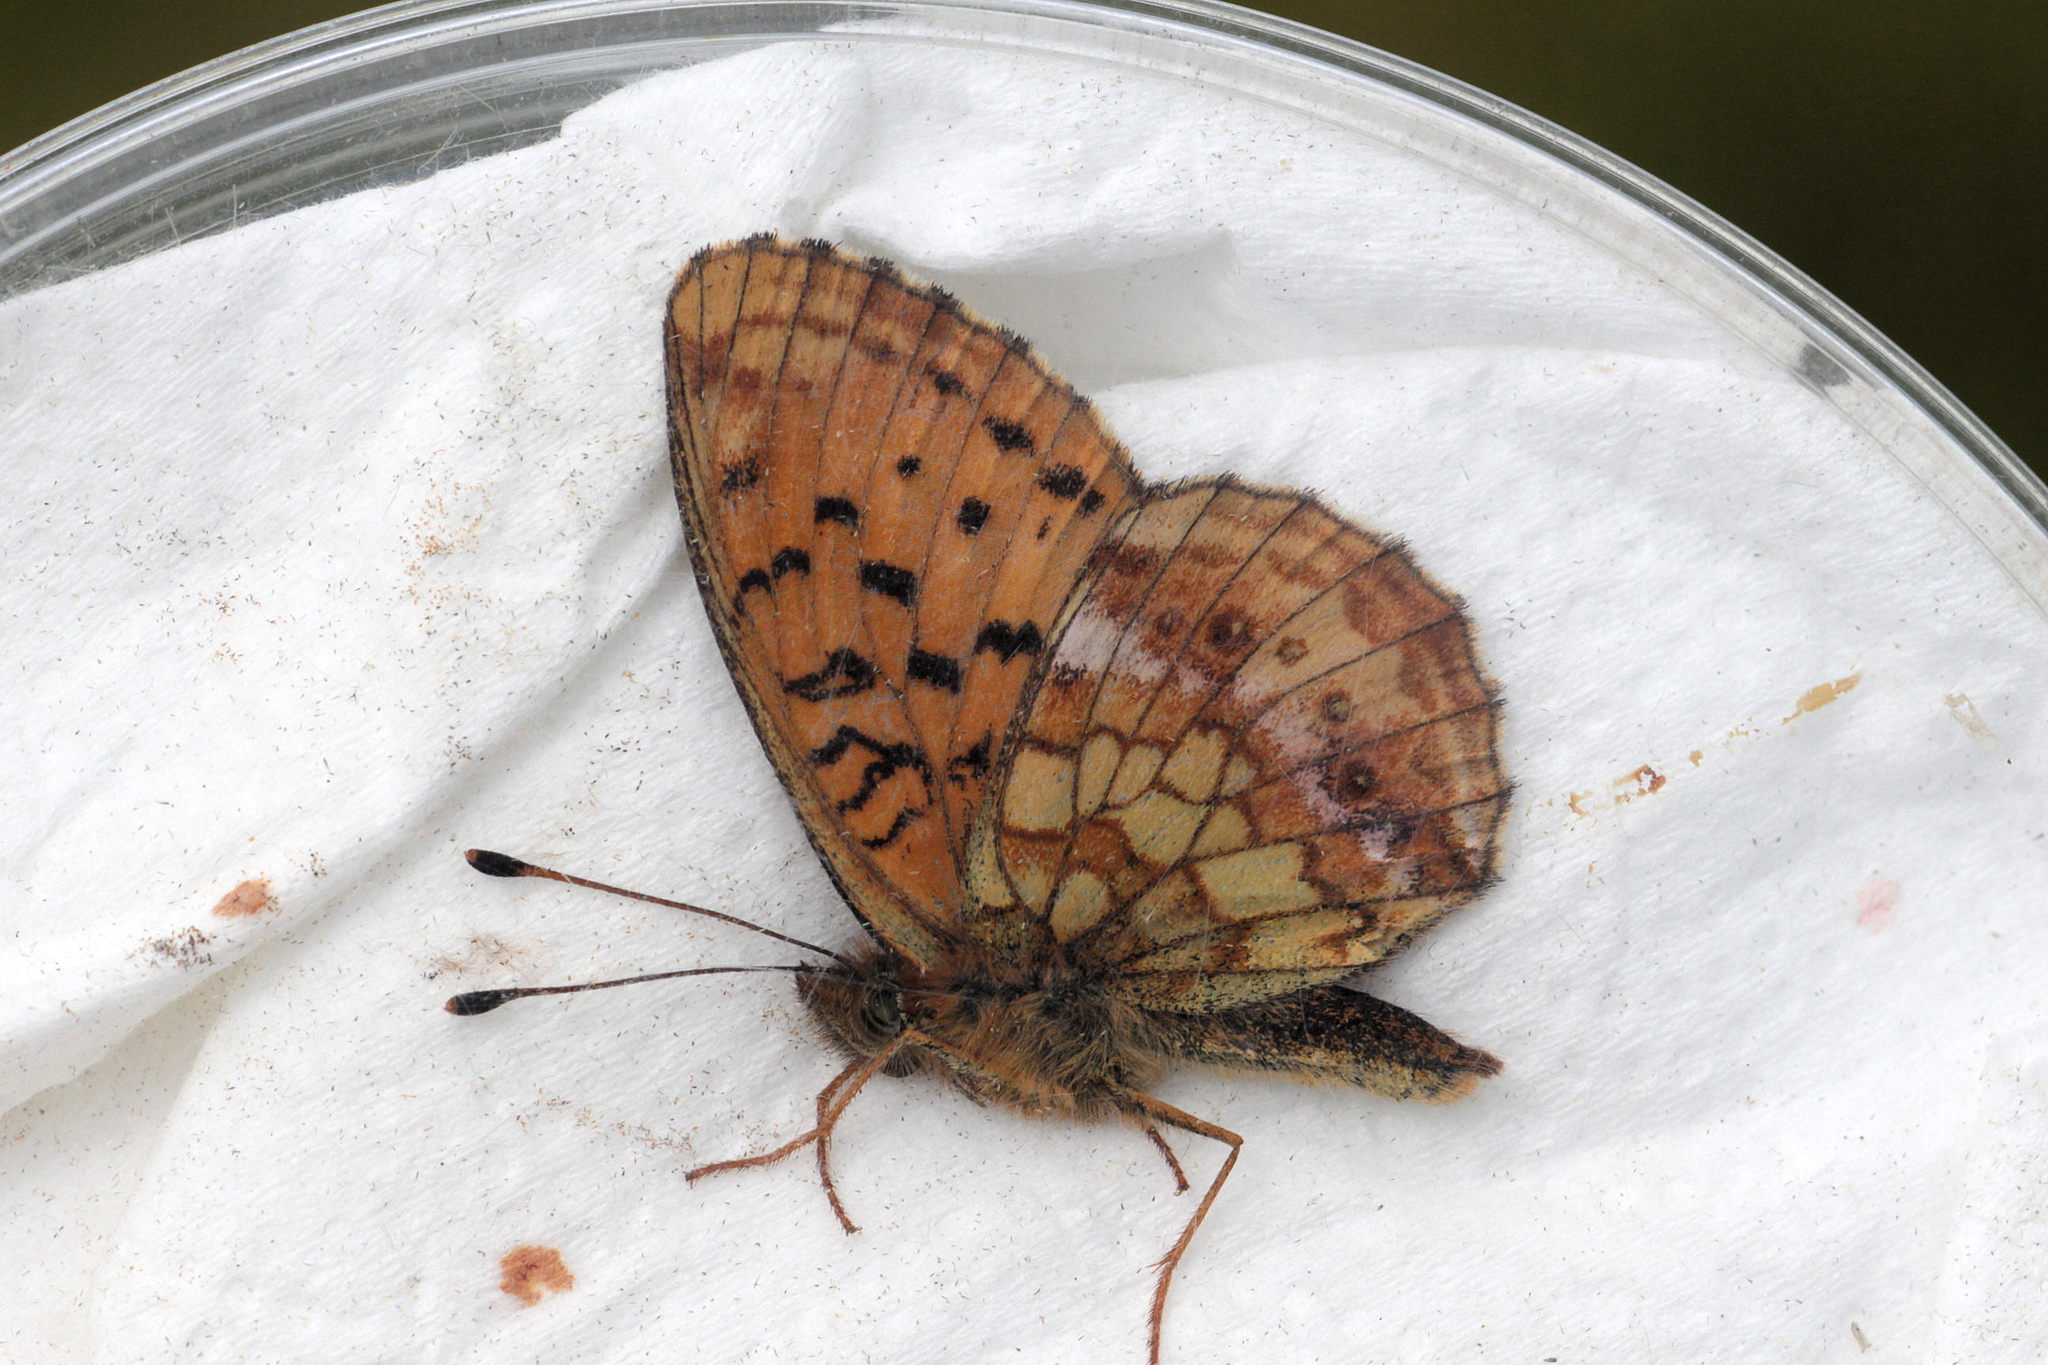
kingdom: Animalia
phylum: Arthropoda
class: Insecta
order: Lepidoptera
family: Nymphalidae
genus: Brenthis
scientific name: Brenthis ino
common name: Lesser marbled fritillary
